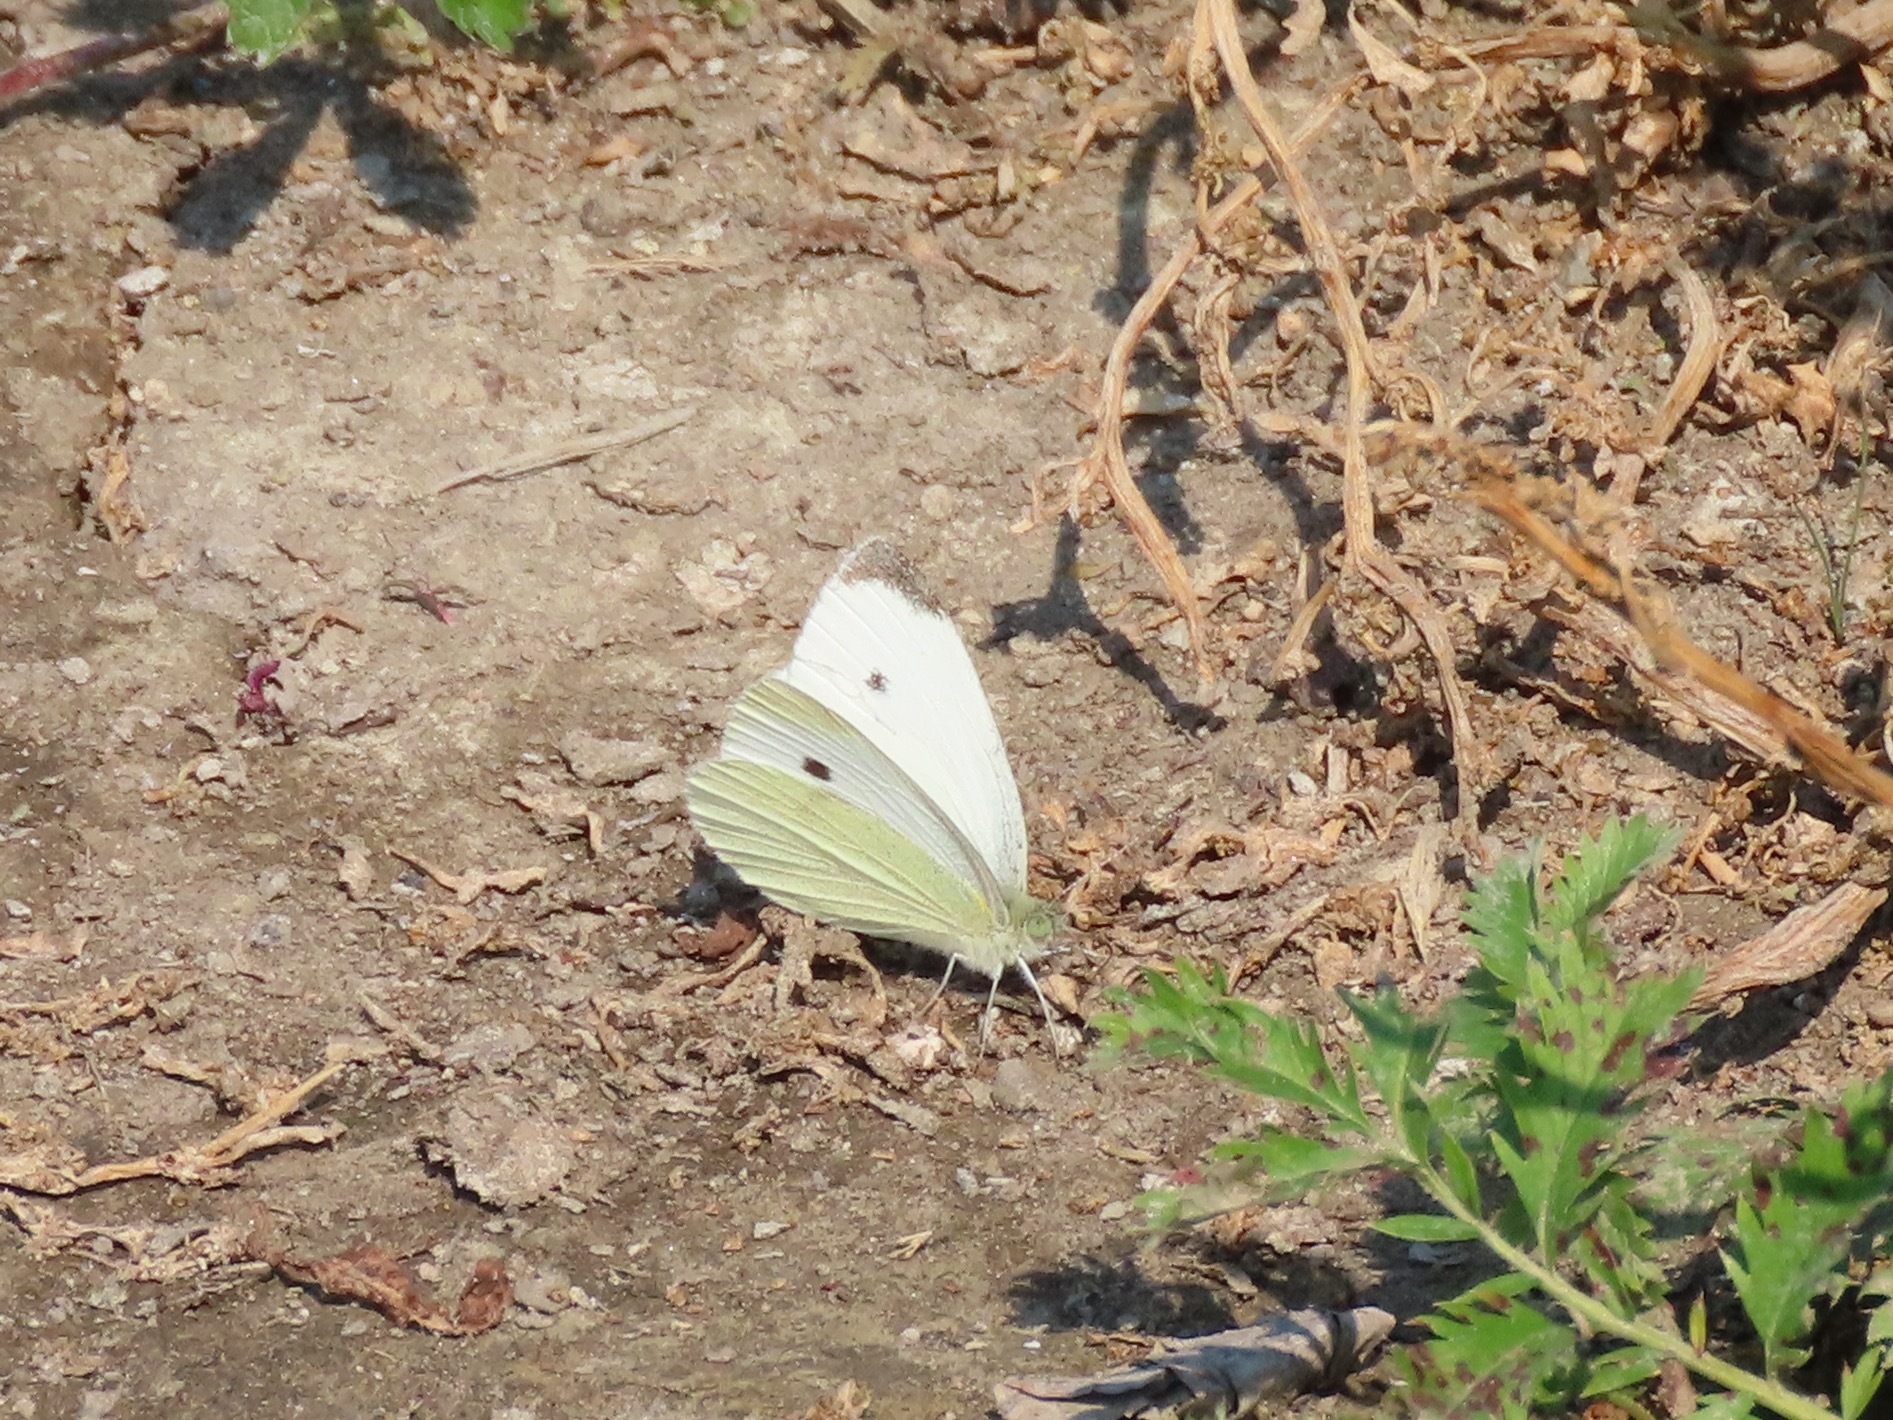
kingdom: Animalia
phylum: Arthropoda
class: Insecta
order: Lepidoptera
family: Pieridae
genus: Pieris
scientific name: Pieris rapae
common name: Small white
